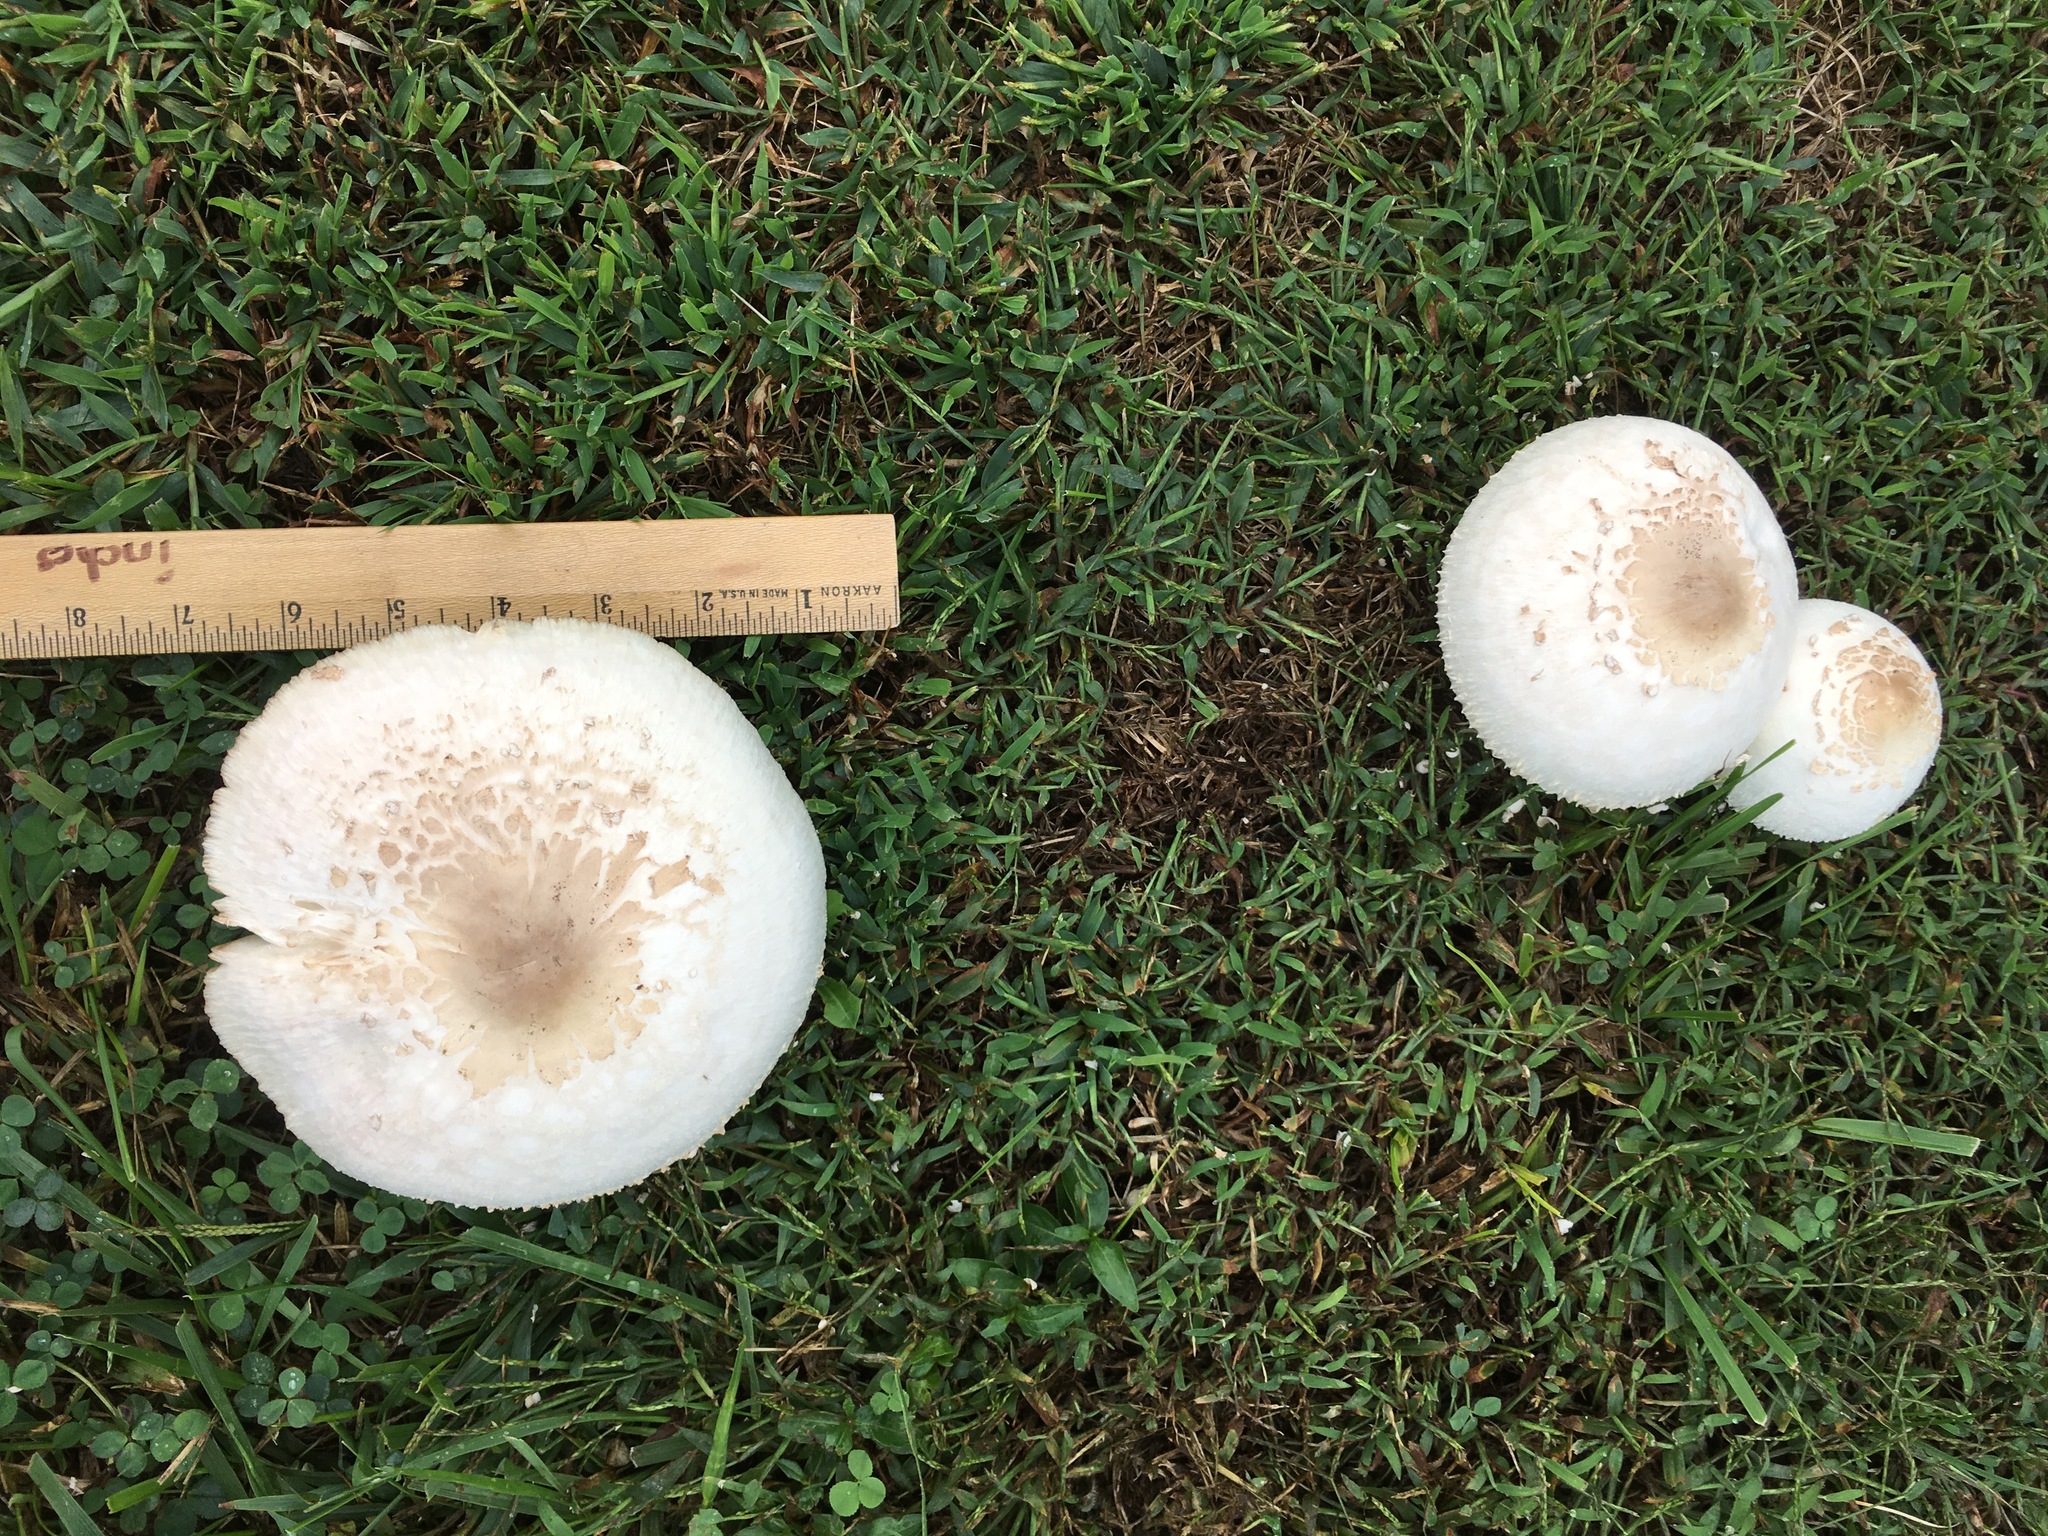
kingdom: Fungi
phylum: Basidiomycota
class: Agaricomycetes
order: Agaricales
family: Agaricaceae
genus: Chlorophyllum
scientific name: Chlorophyllum molybdites
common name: False parasol
